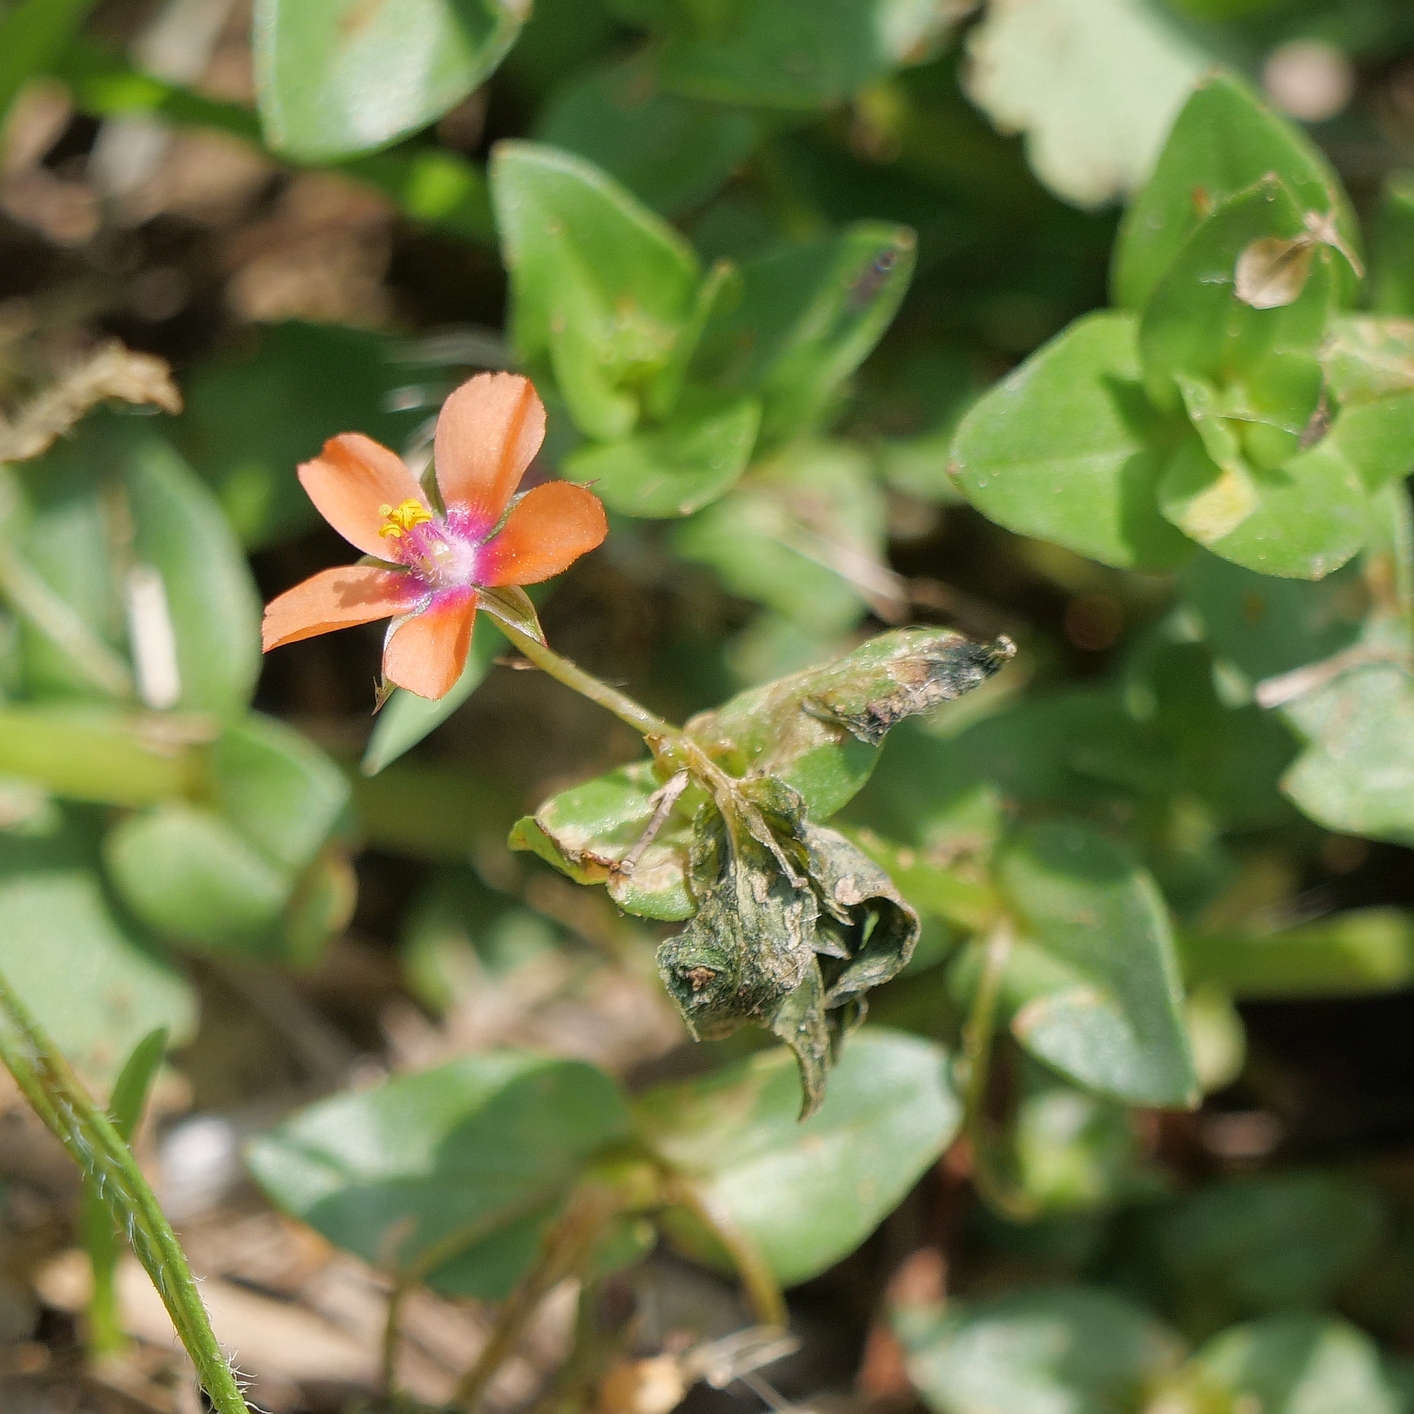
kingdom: Plantae
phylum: Tracheophyta
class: Magnoliopsida
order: Ericales
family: Primulaceae
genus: Lysimachia
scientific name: Lysimachia arvensis
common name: Scarlet pimpernel
